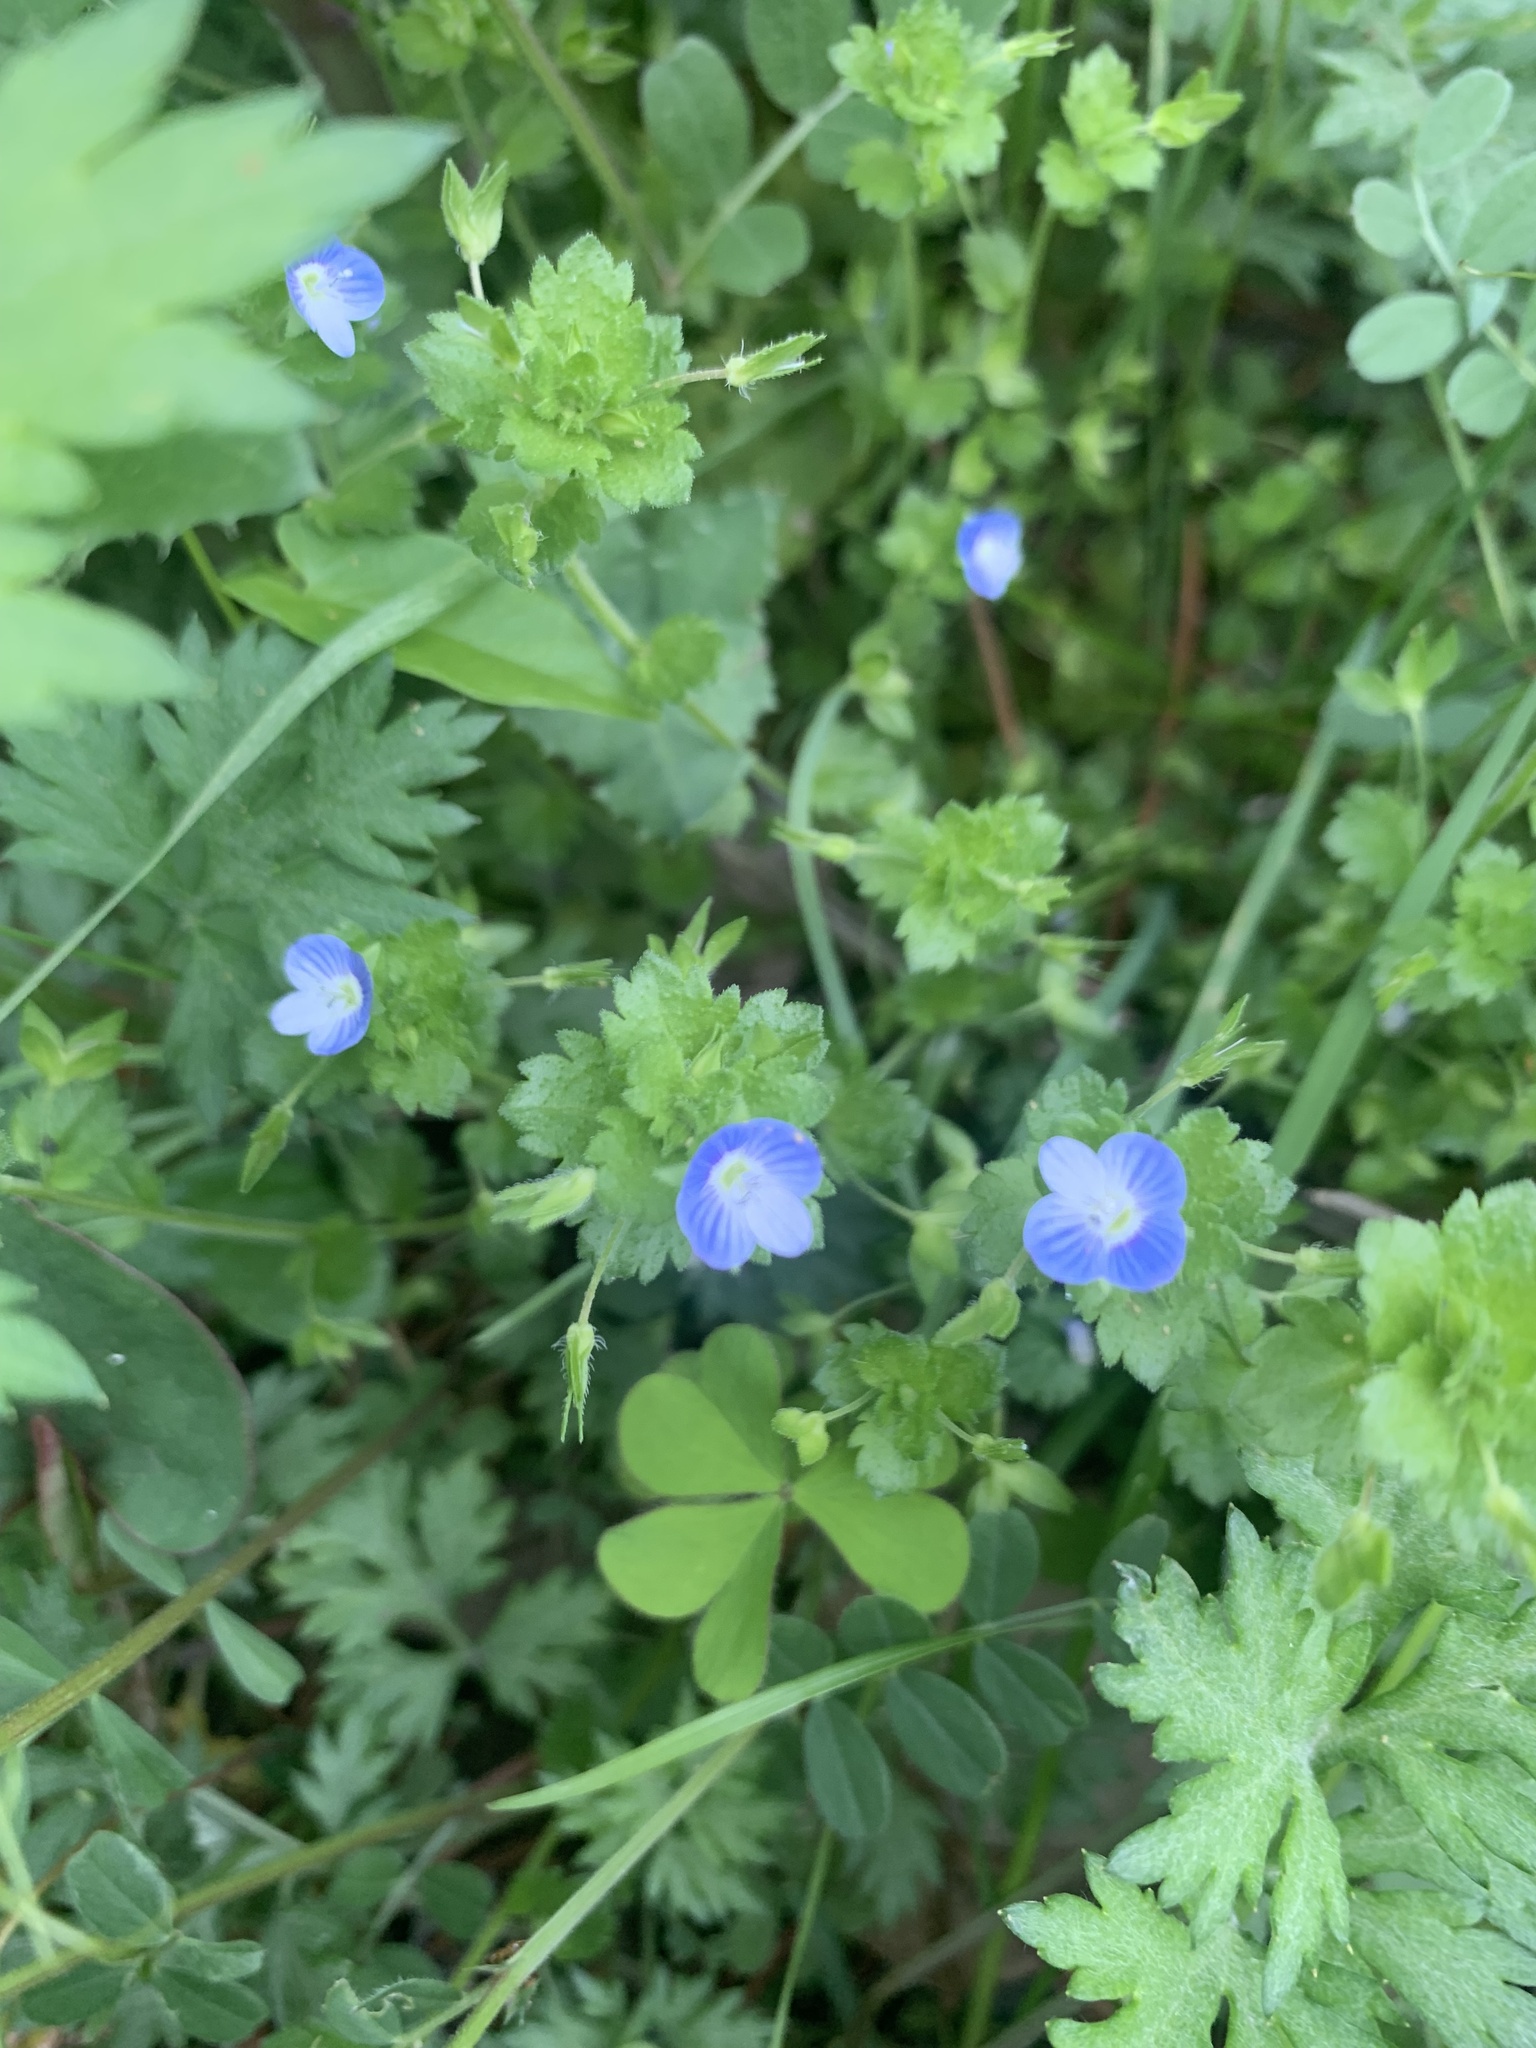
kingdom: Plantae
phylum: Tracheophyta
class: Magnoliopsida
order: Lamiales
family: Plantaginaceae
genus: Veronica
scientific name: Veronica persica
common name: Common field-speedwell
